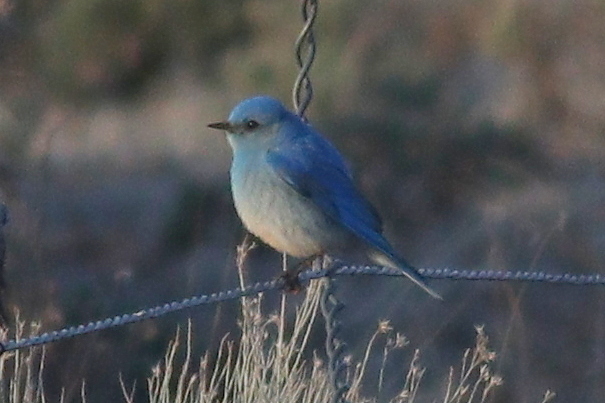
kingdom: Animalia
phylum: Chordata
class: Aves
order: Passeriformes
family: Turdidae
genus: Sialia
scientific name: Sialia currucoides
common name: Mountain bluebird
